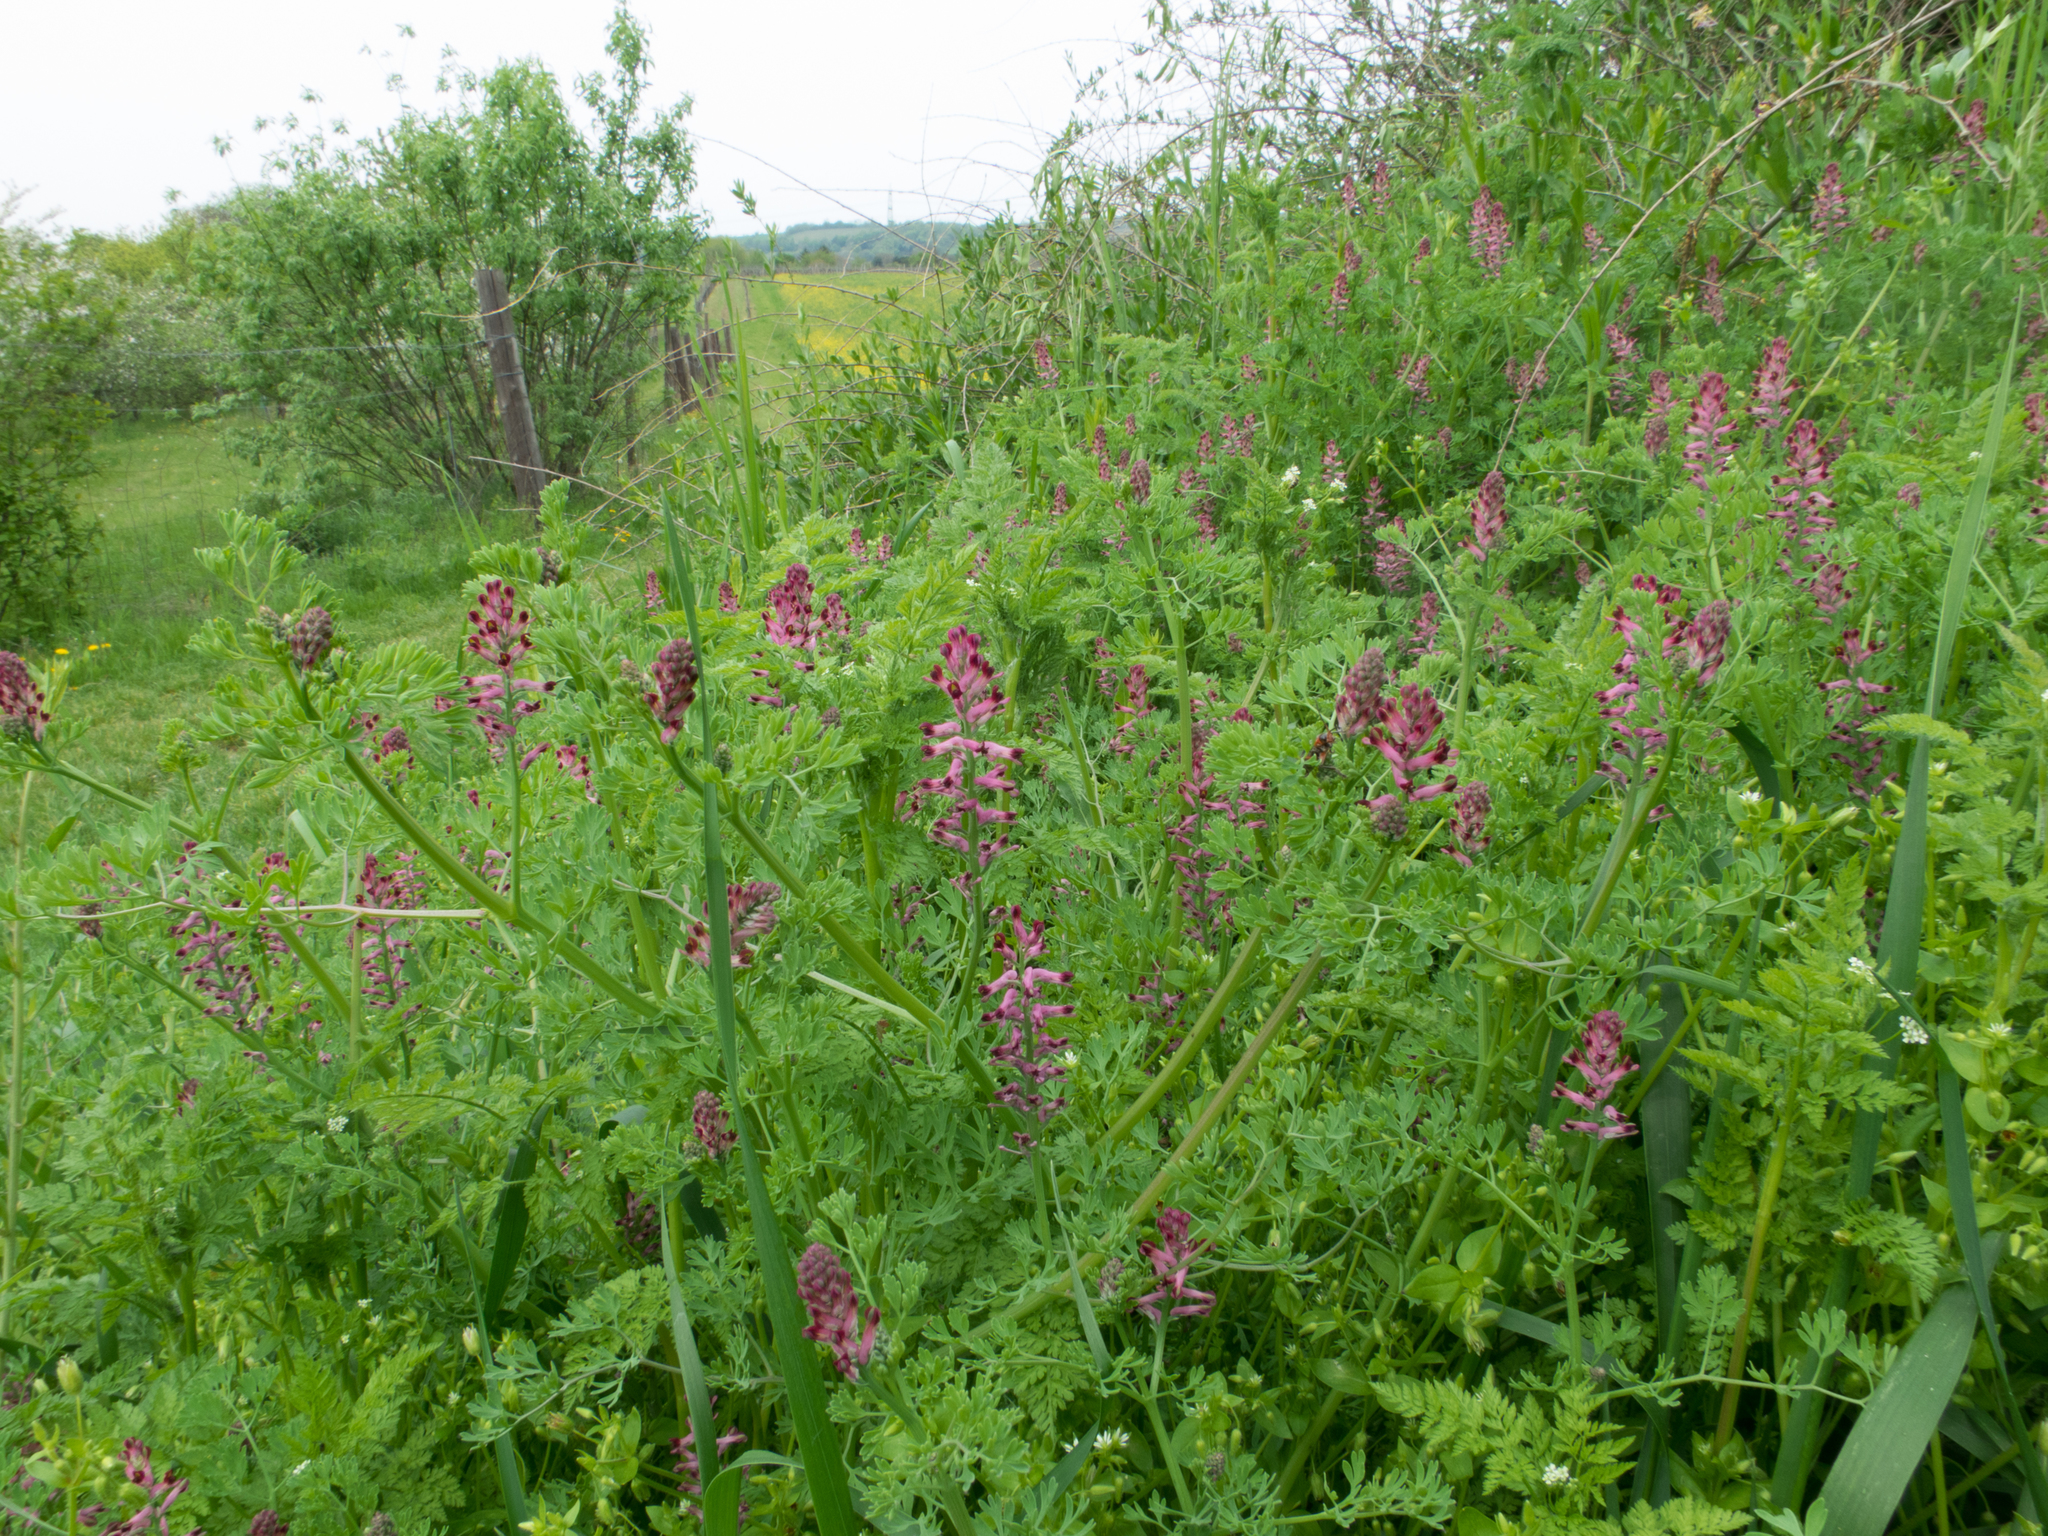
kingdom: Plantae
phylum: Tracheophyta
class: Magnoliopsida
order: Ranunculales
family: Papaveraceae
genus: Fumaria
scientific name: Fumaria officinalis
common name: Common fumitory
